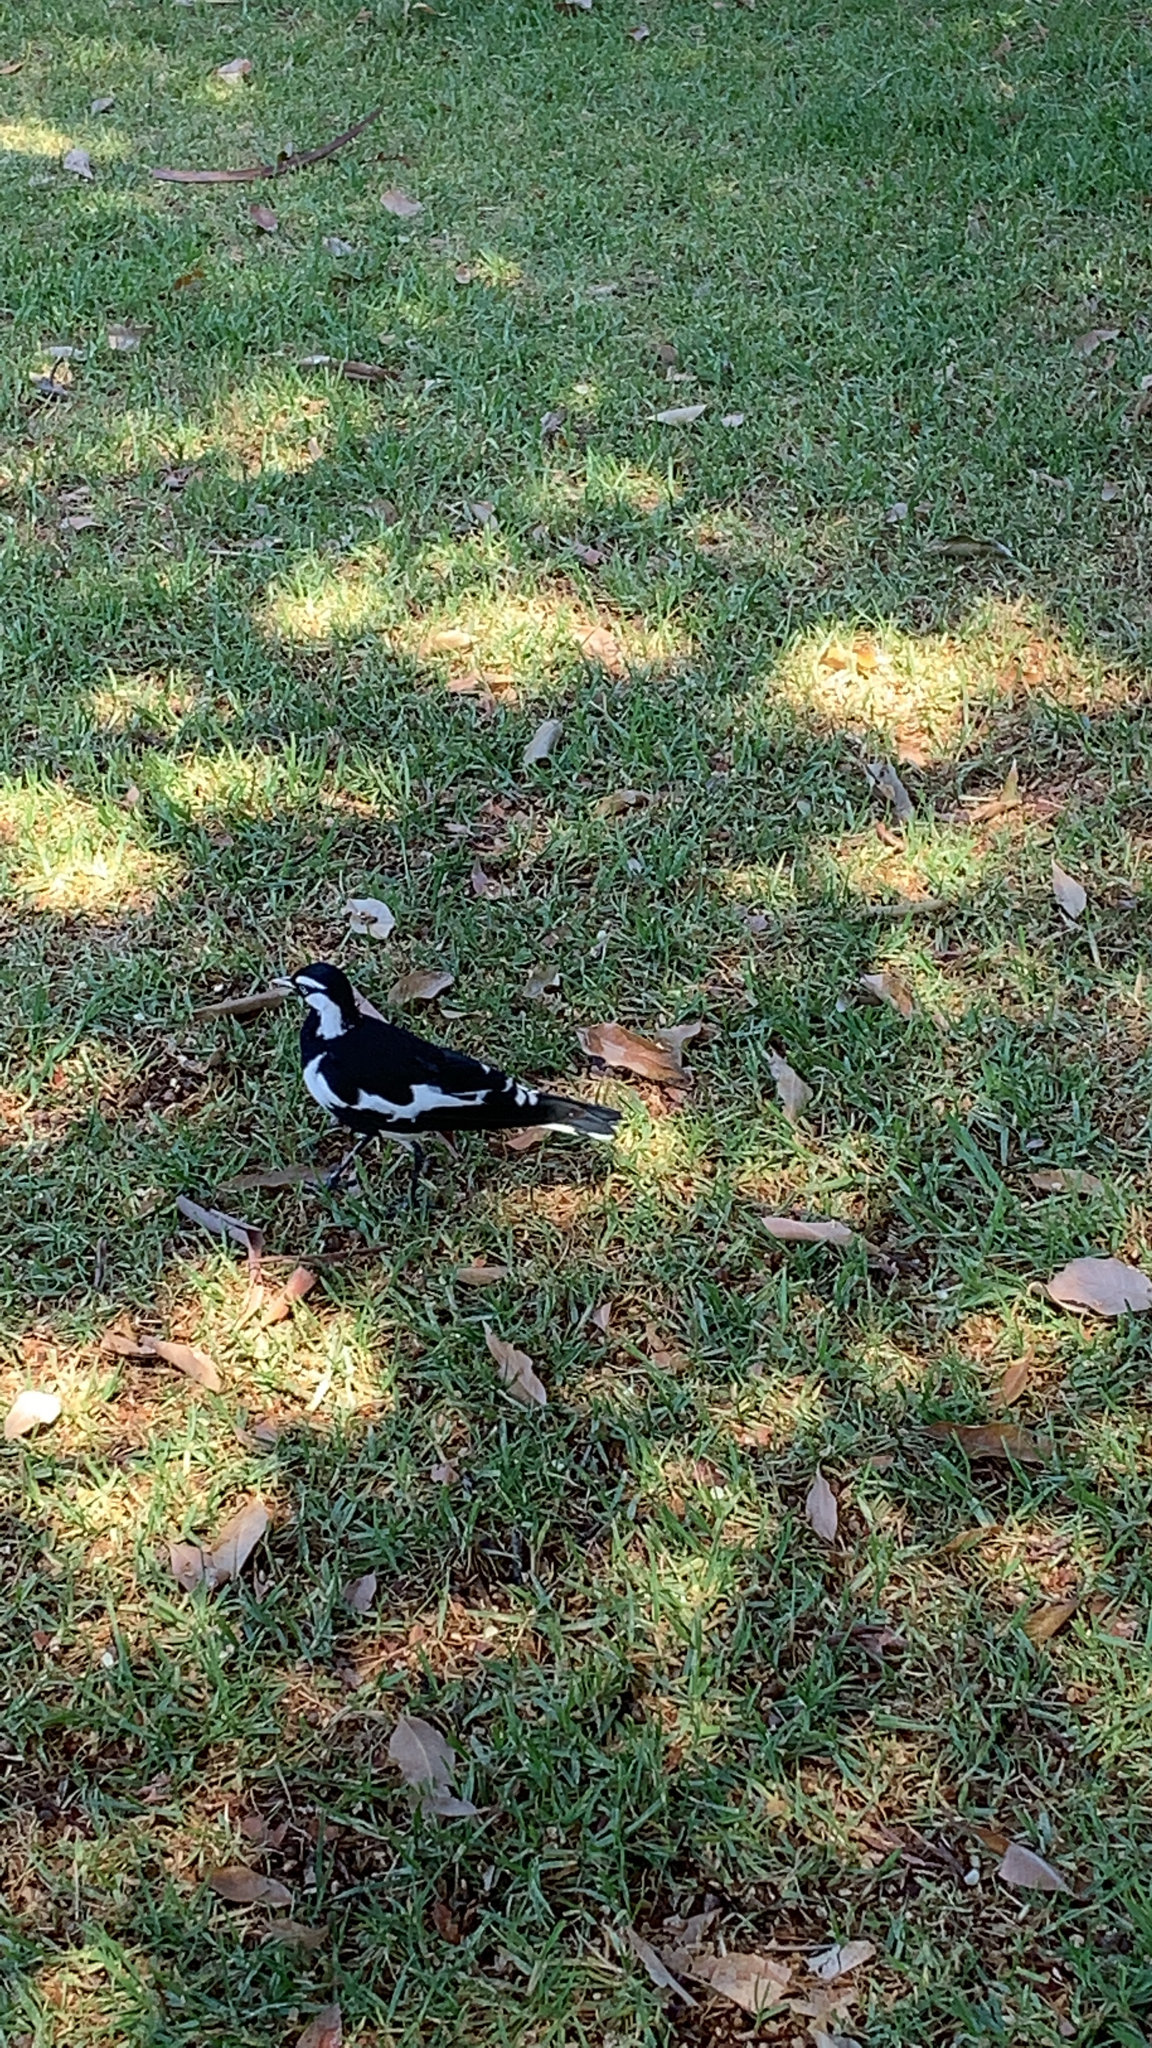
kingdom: Animalia
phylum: Chordata
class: Aves
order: Passeriformes
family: Monarchidae
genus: Grallina
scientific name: Grallina cyanoleuca
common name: Magpie-lark
